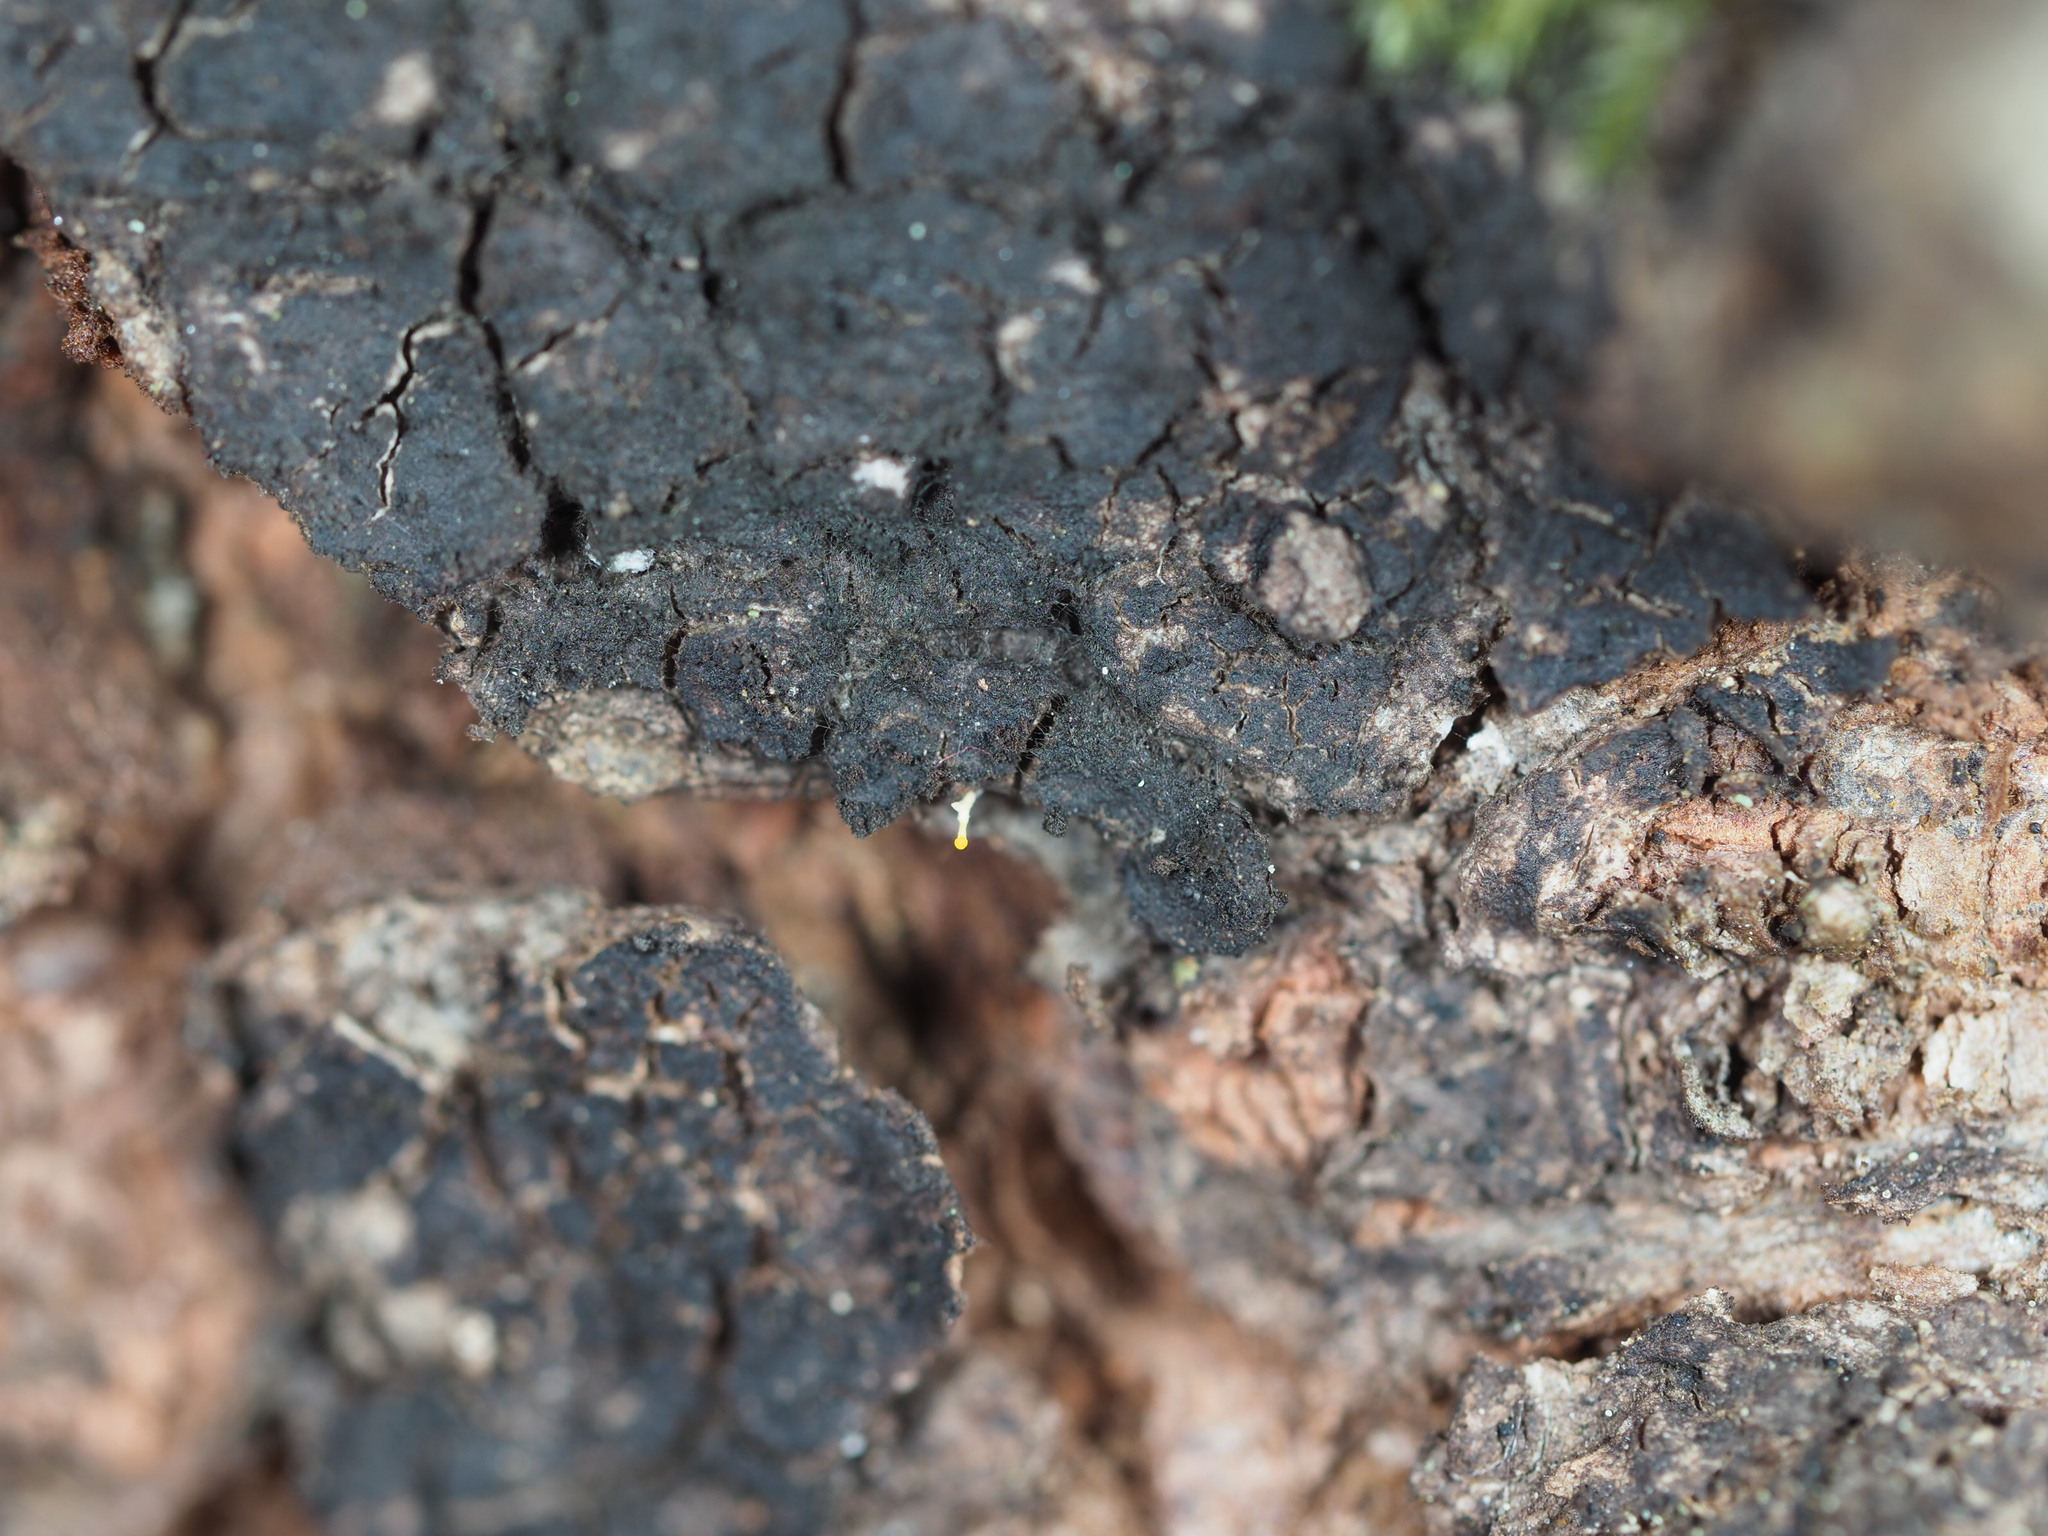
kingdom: Fungi
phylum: Ascomycota
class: Leotiomycetes
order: Helotiales
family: Helotiaceae
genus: Bisporella
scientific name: Bisporella resinicola
